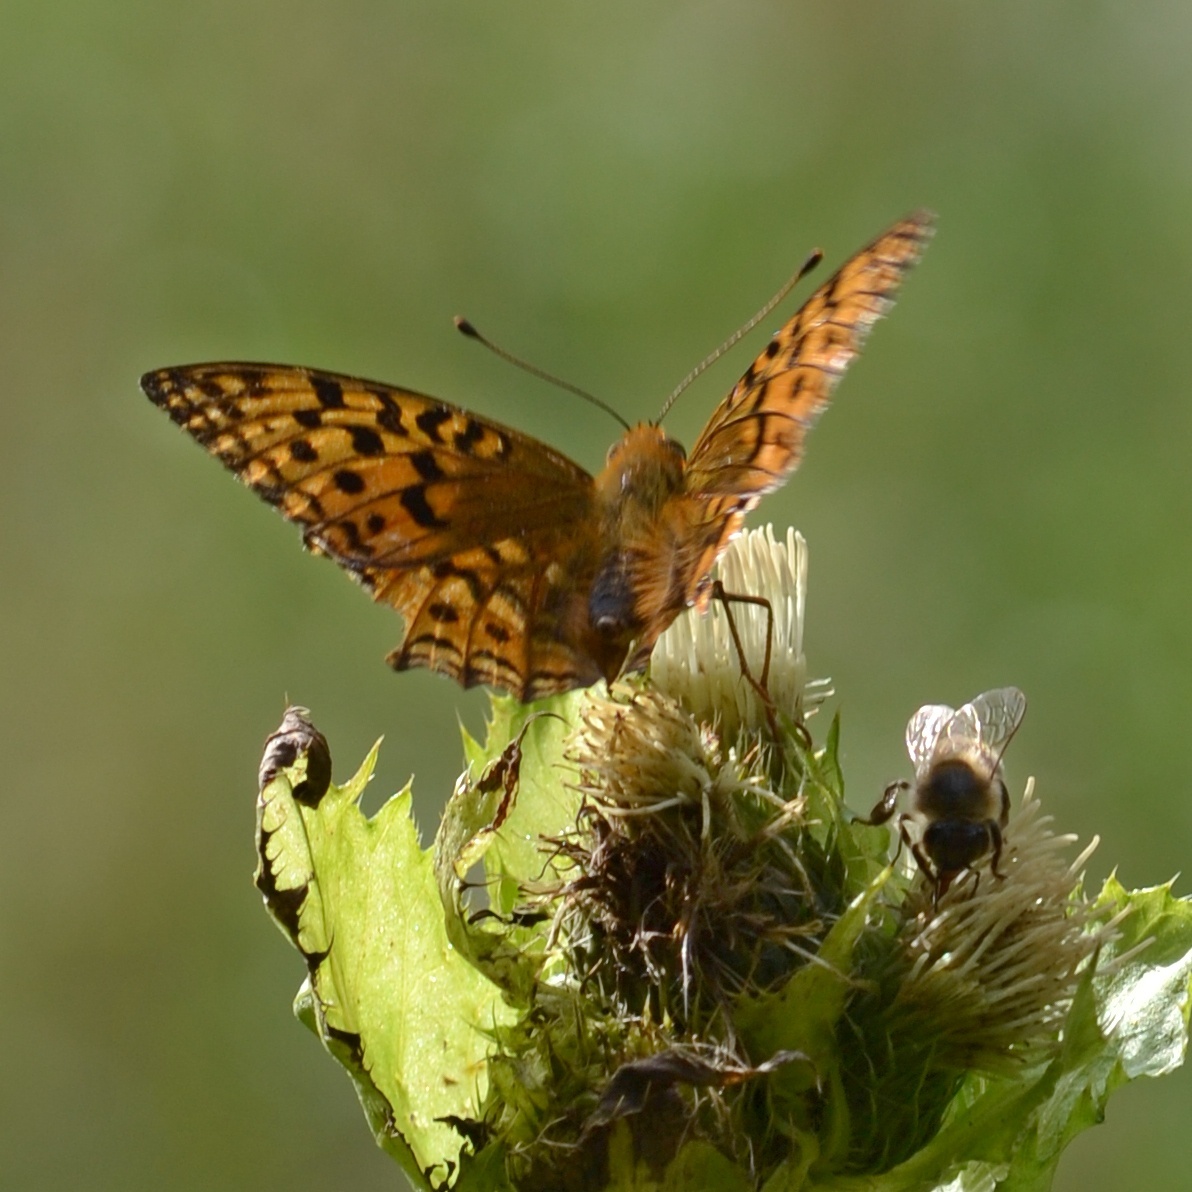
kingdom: Animalia
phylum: Arthropoda
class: Insecta
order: Lepidoptera
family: Nymphalidae
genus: Fabriciana
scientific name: Fabriciana adippe
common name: High brown fritillary
